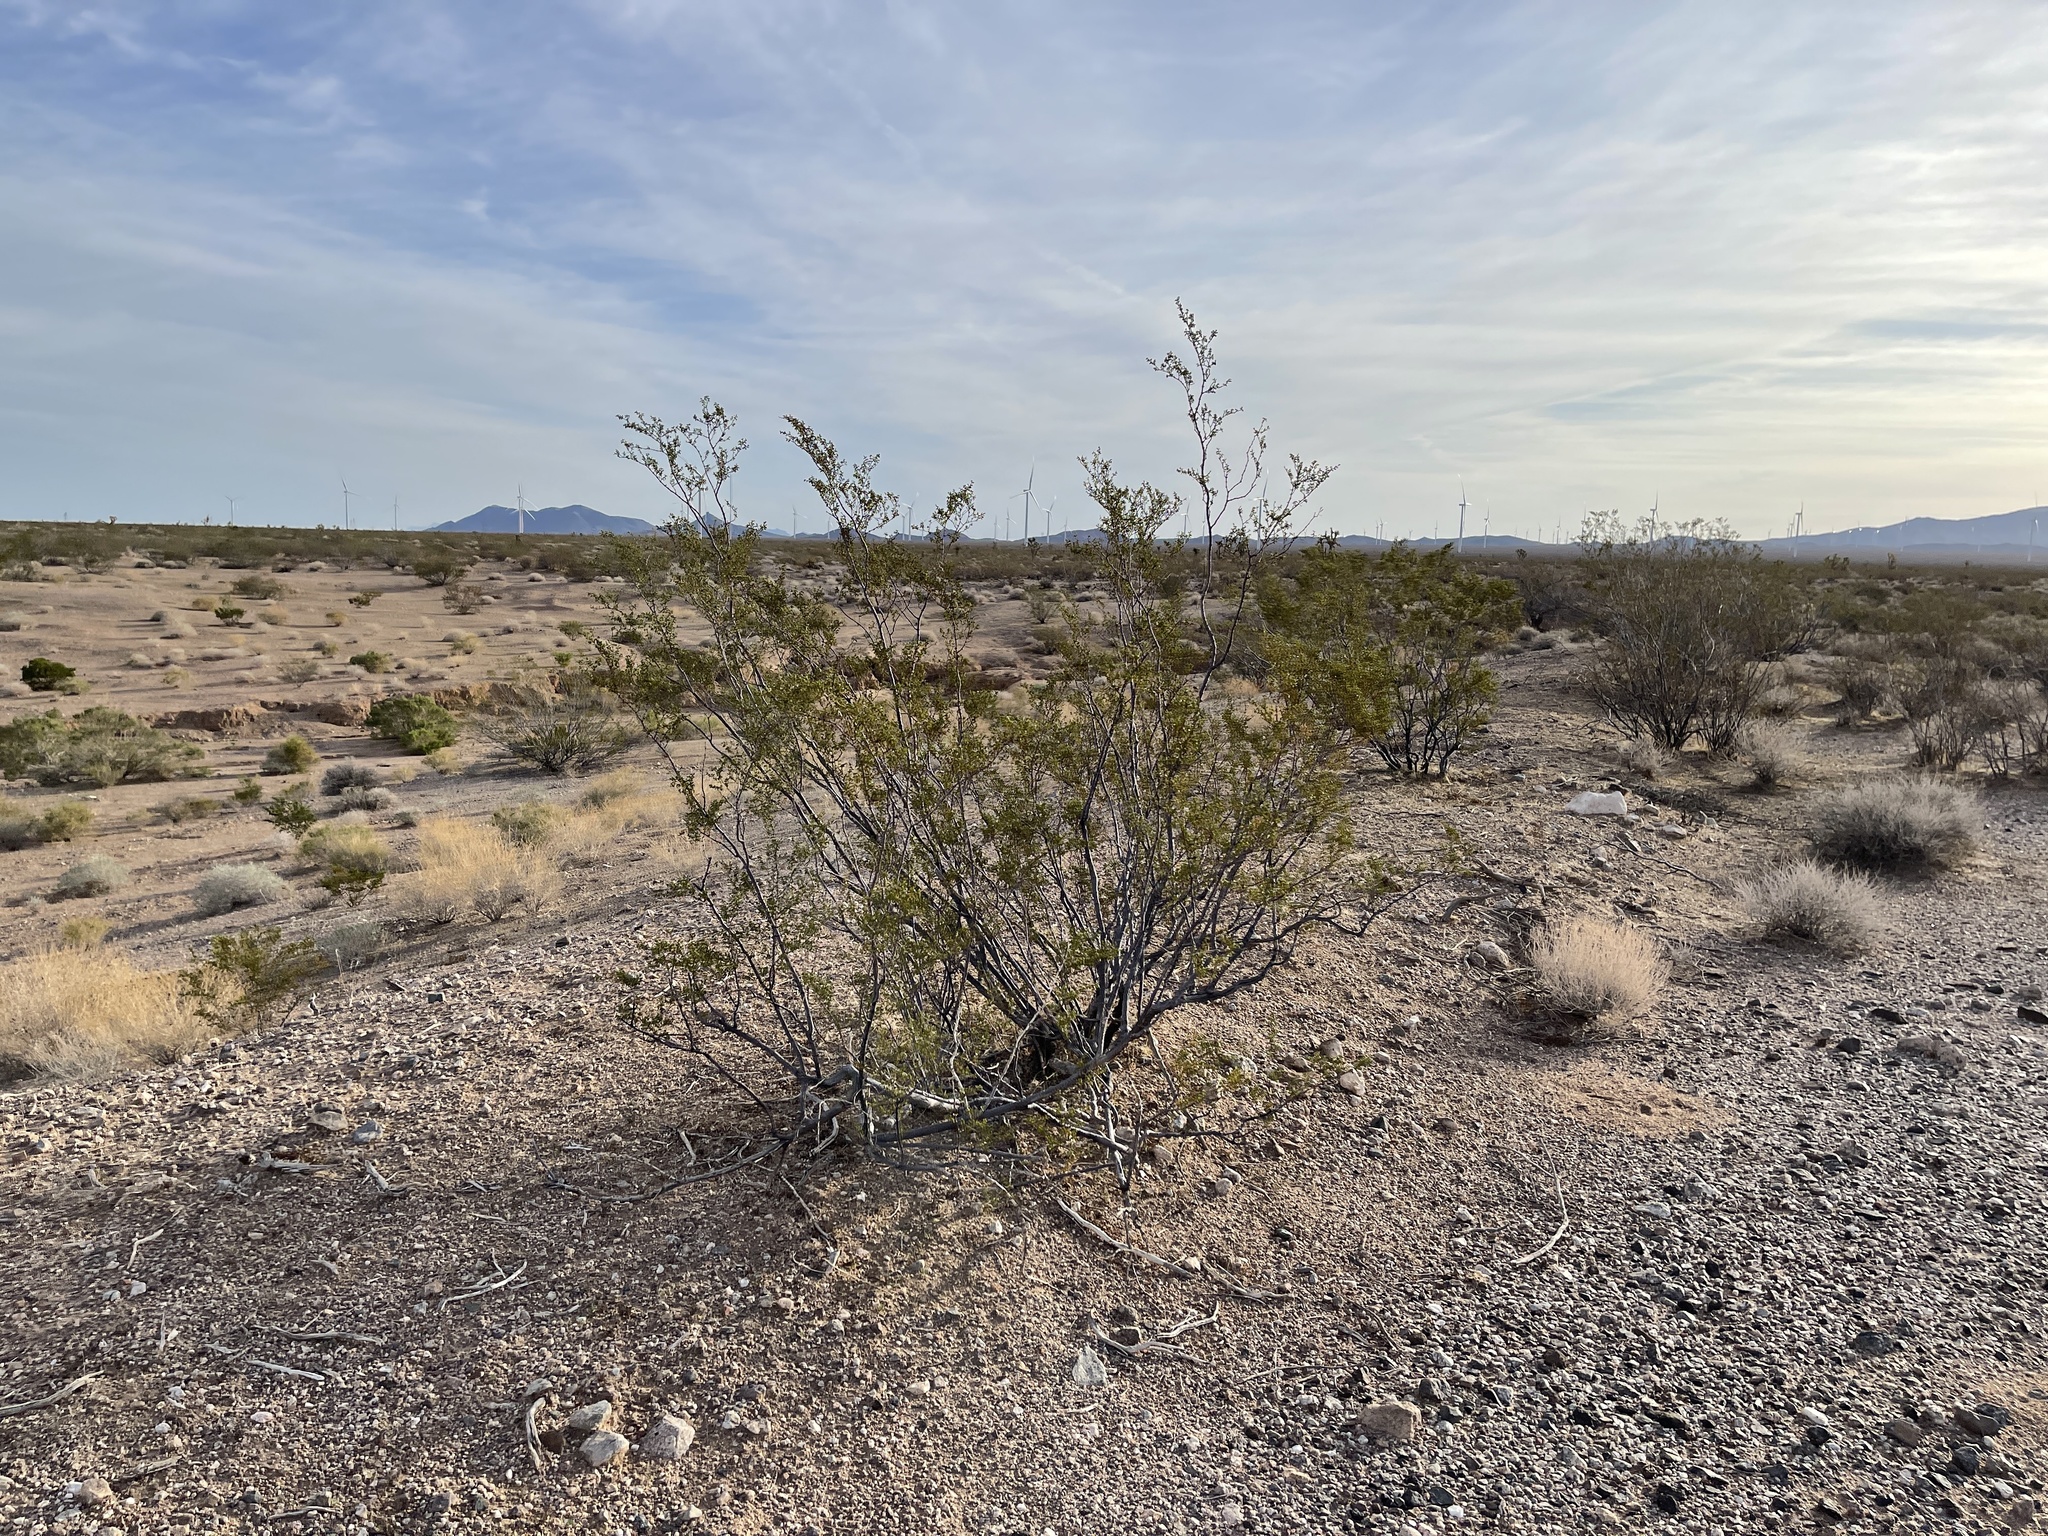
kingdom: Plantae
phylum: Tracheophyta
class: Magnoliopsida
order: Zygophyllales
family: Zygophyllaceae
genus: Larrea
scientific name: Larrea tridentata
